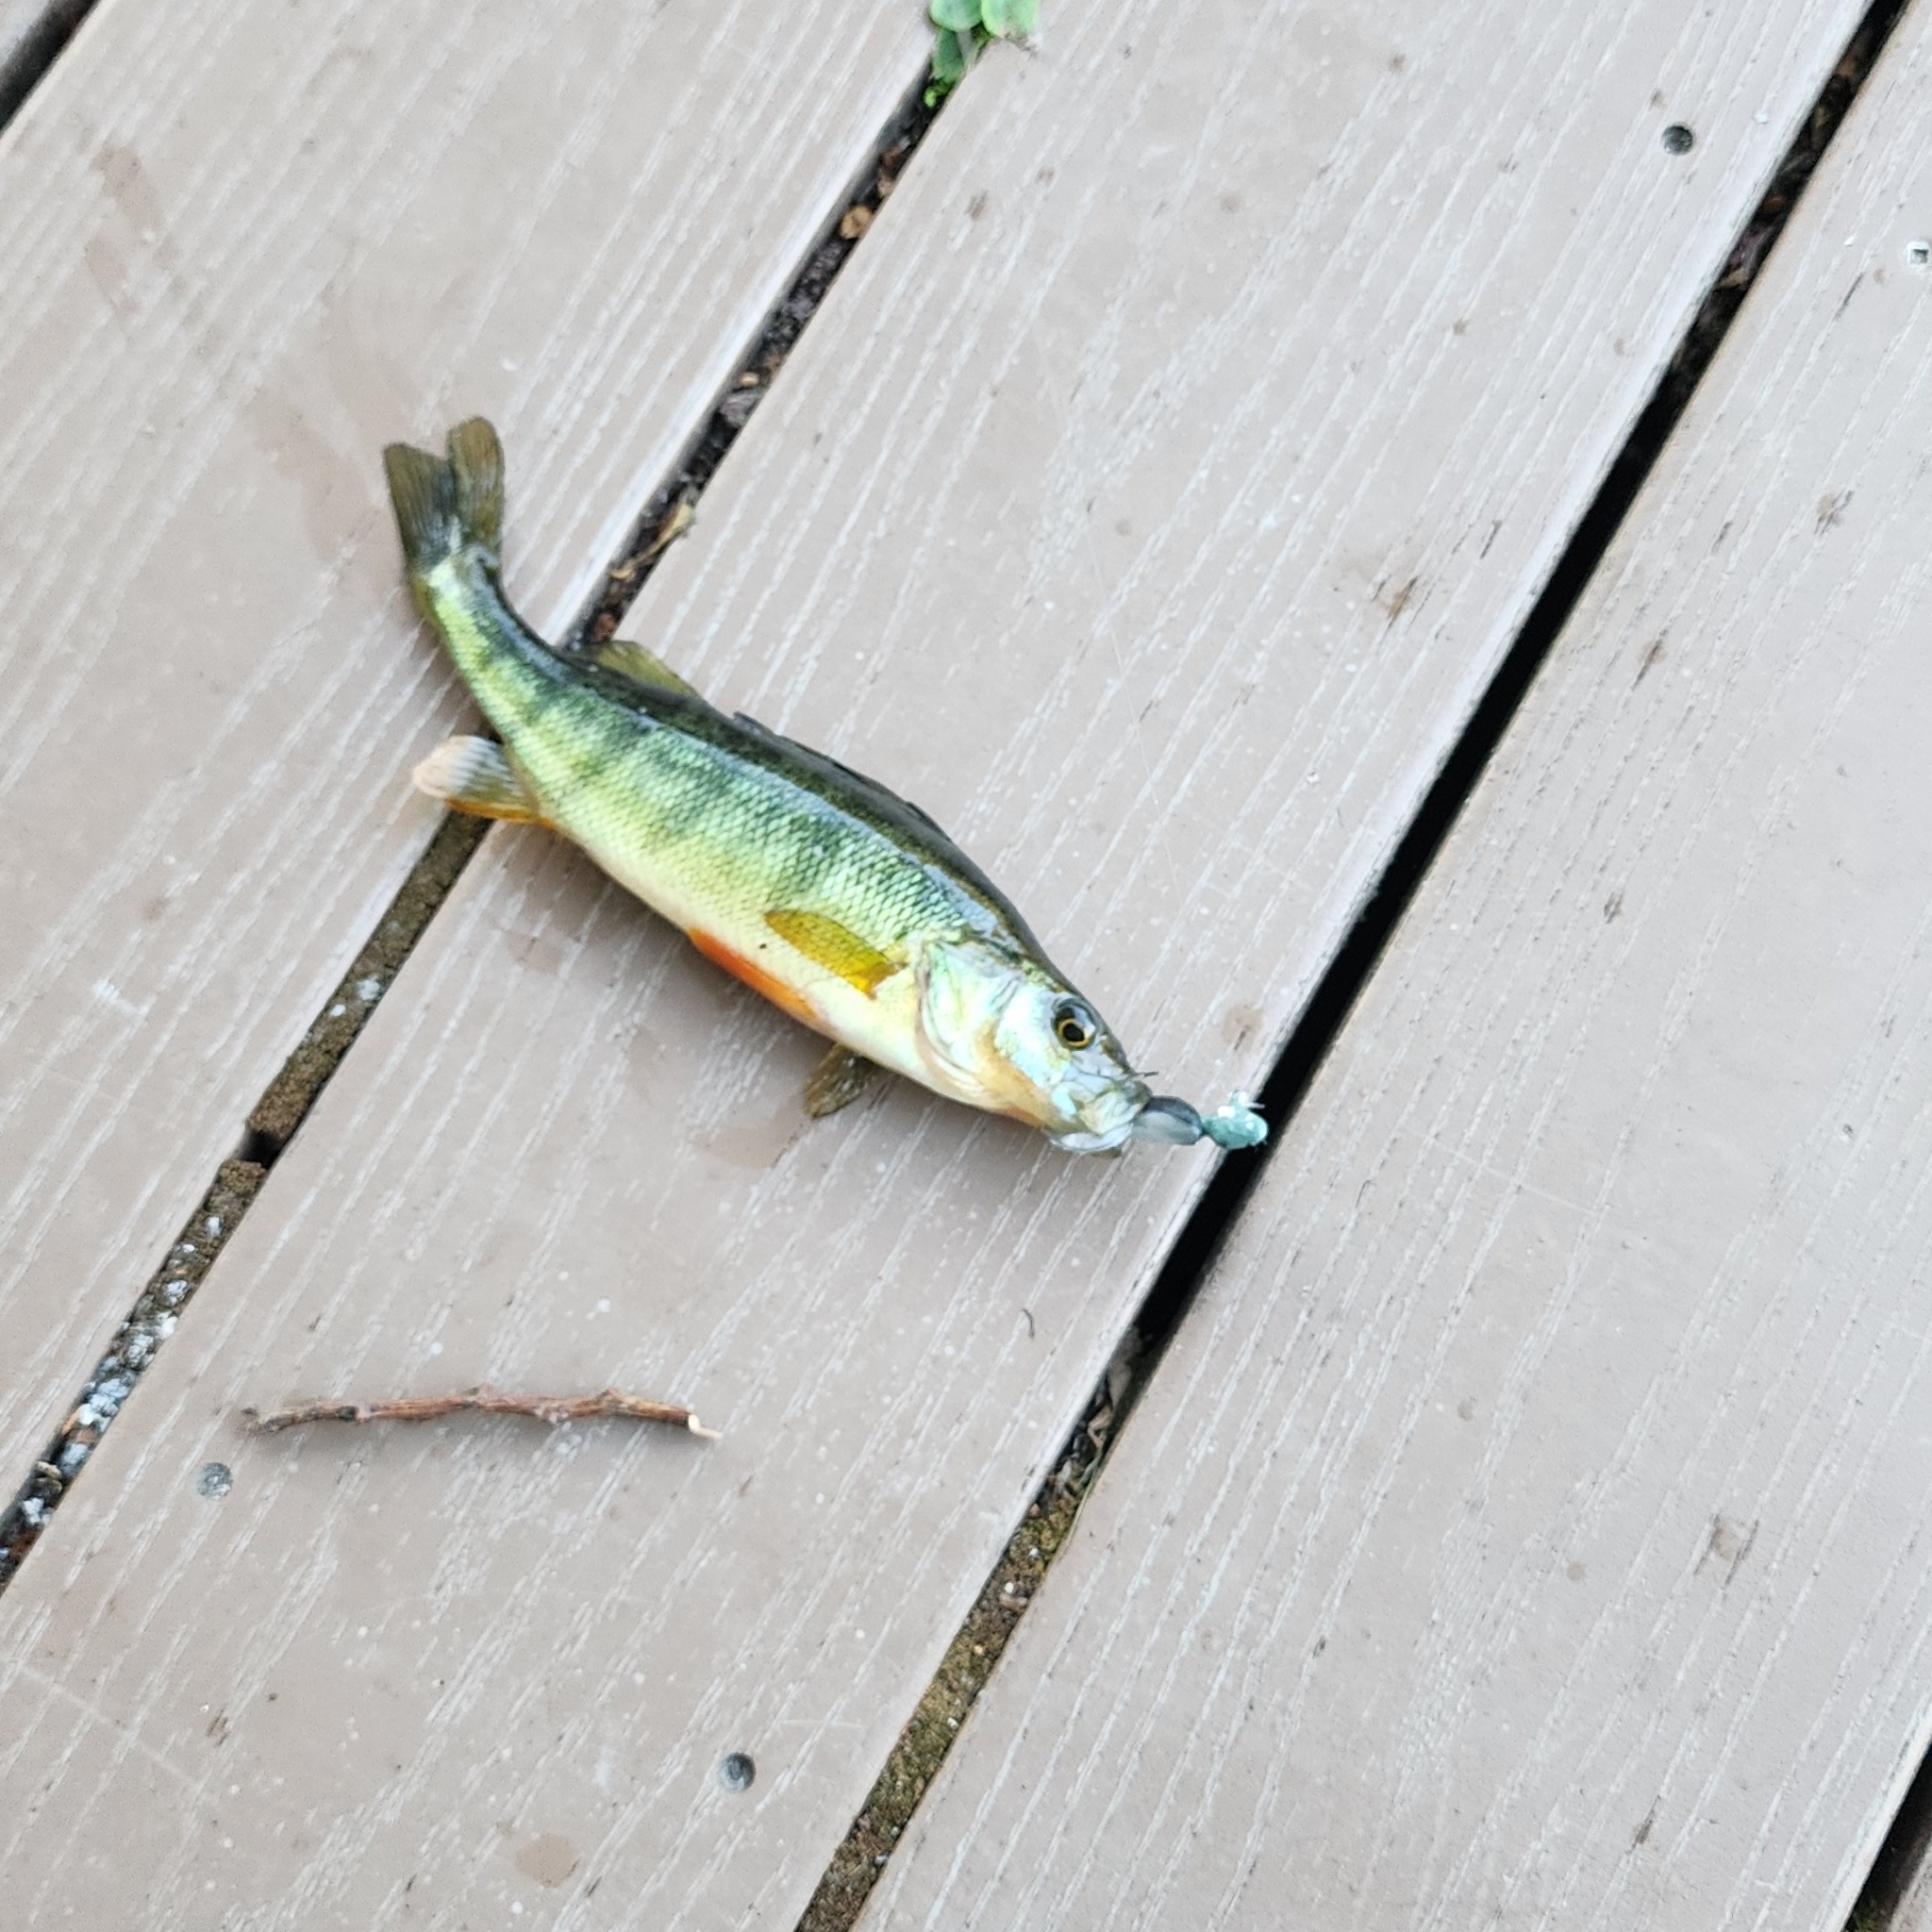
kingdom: Animalia
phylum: Chordata
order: Perciformes
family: Percidae
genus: Perca
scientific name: Perca flavescens
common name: Yellow perch
